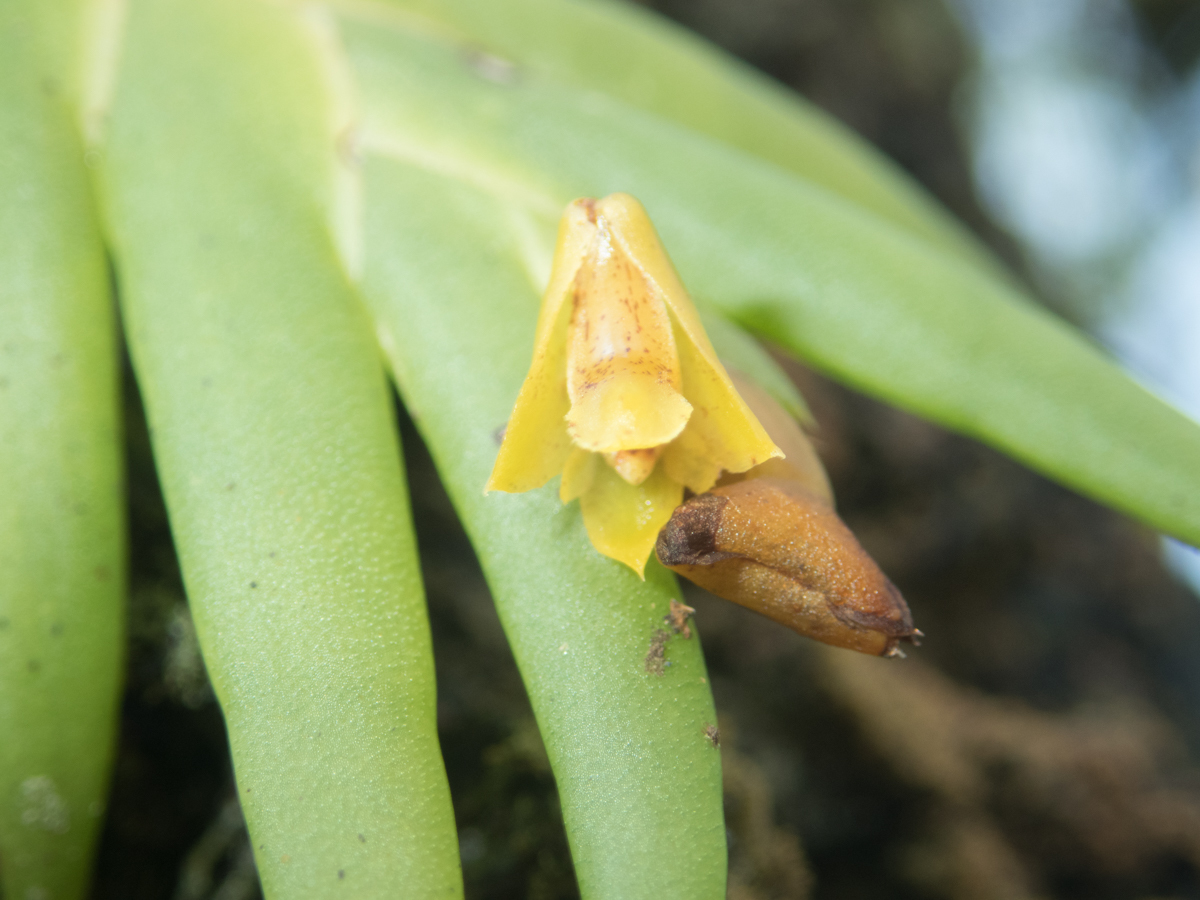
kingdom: Plantae
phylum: Tracheophyta
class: Liliopsida
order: Asparagales
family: Orchidaceae
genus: Oxystophyllum
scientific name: Oxystophyllum carnosum
